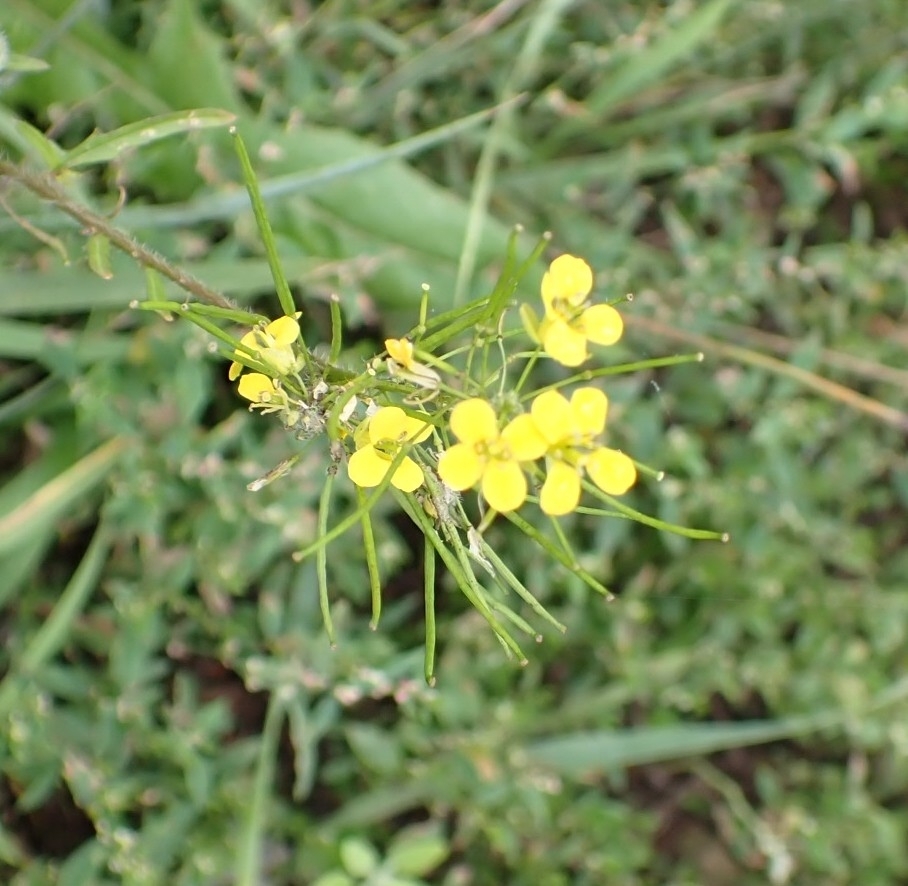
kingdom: Plantae
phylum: Tracheophyta
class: Magnoliopsida
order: Brassicales
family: Brassicaceae
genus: Sisymbrium
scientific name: Sisymbrium loeselii
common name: False london-rocket
